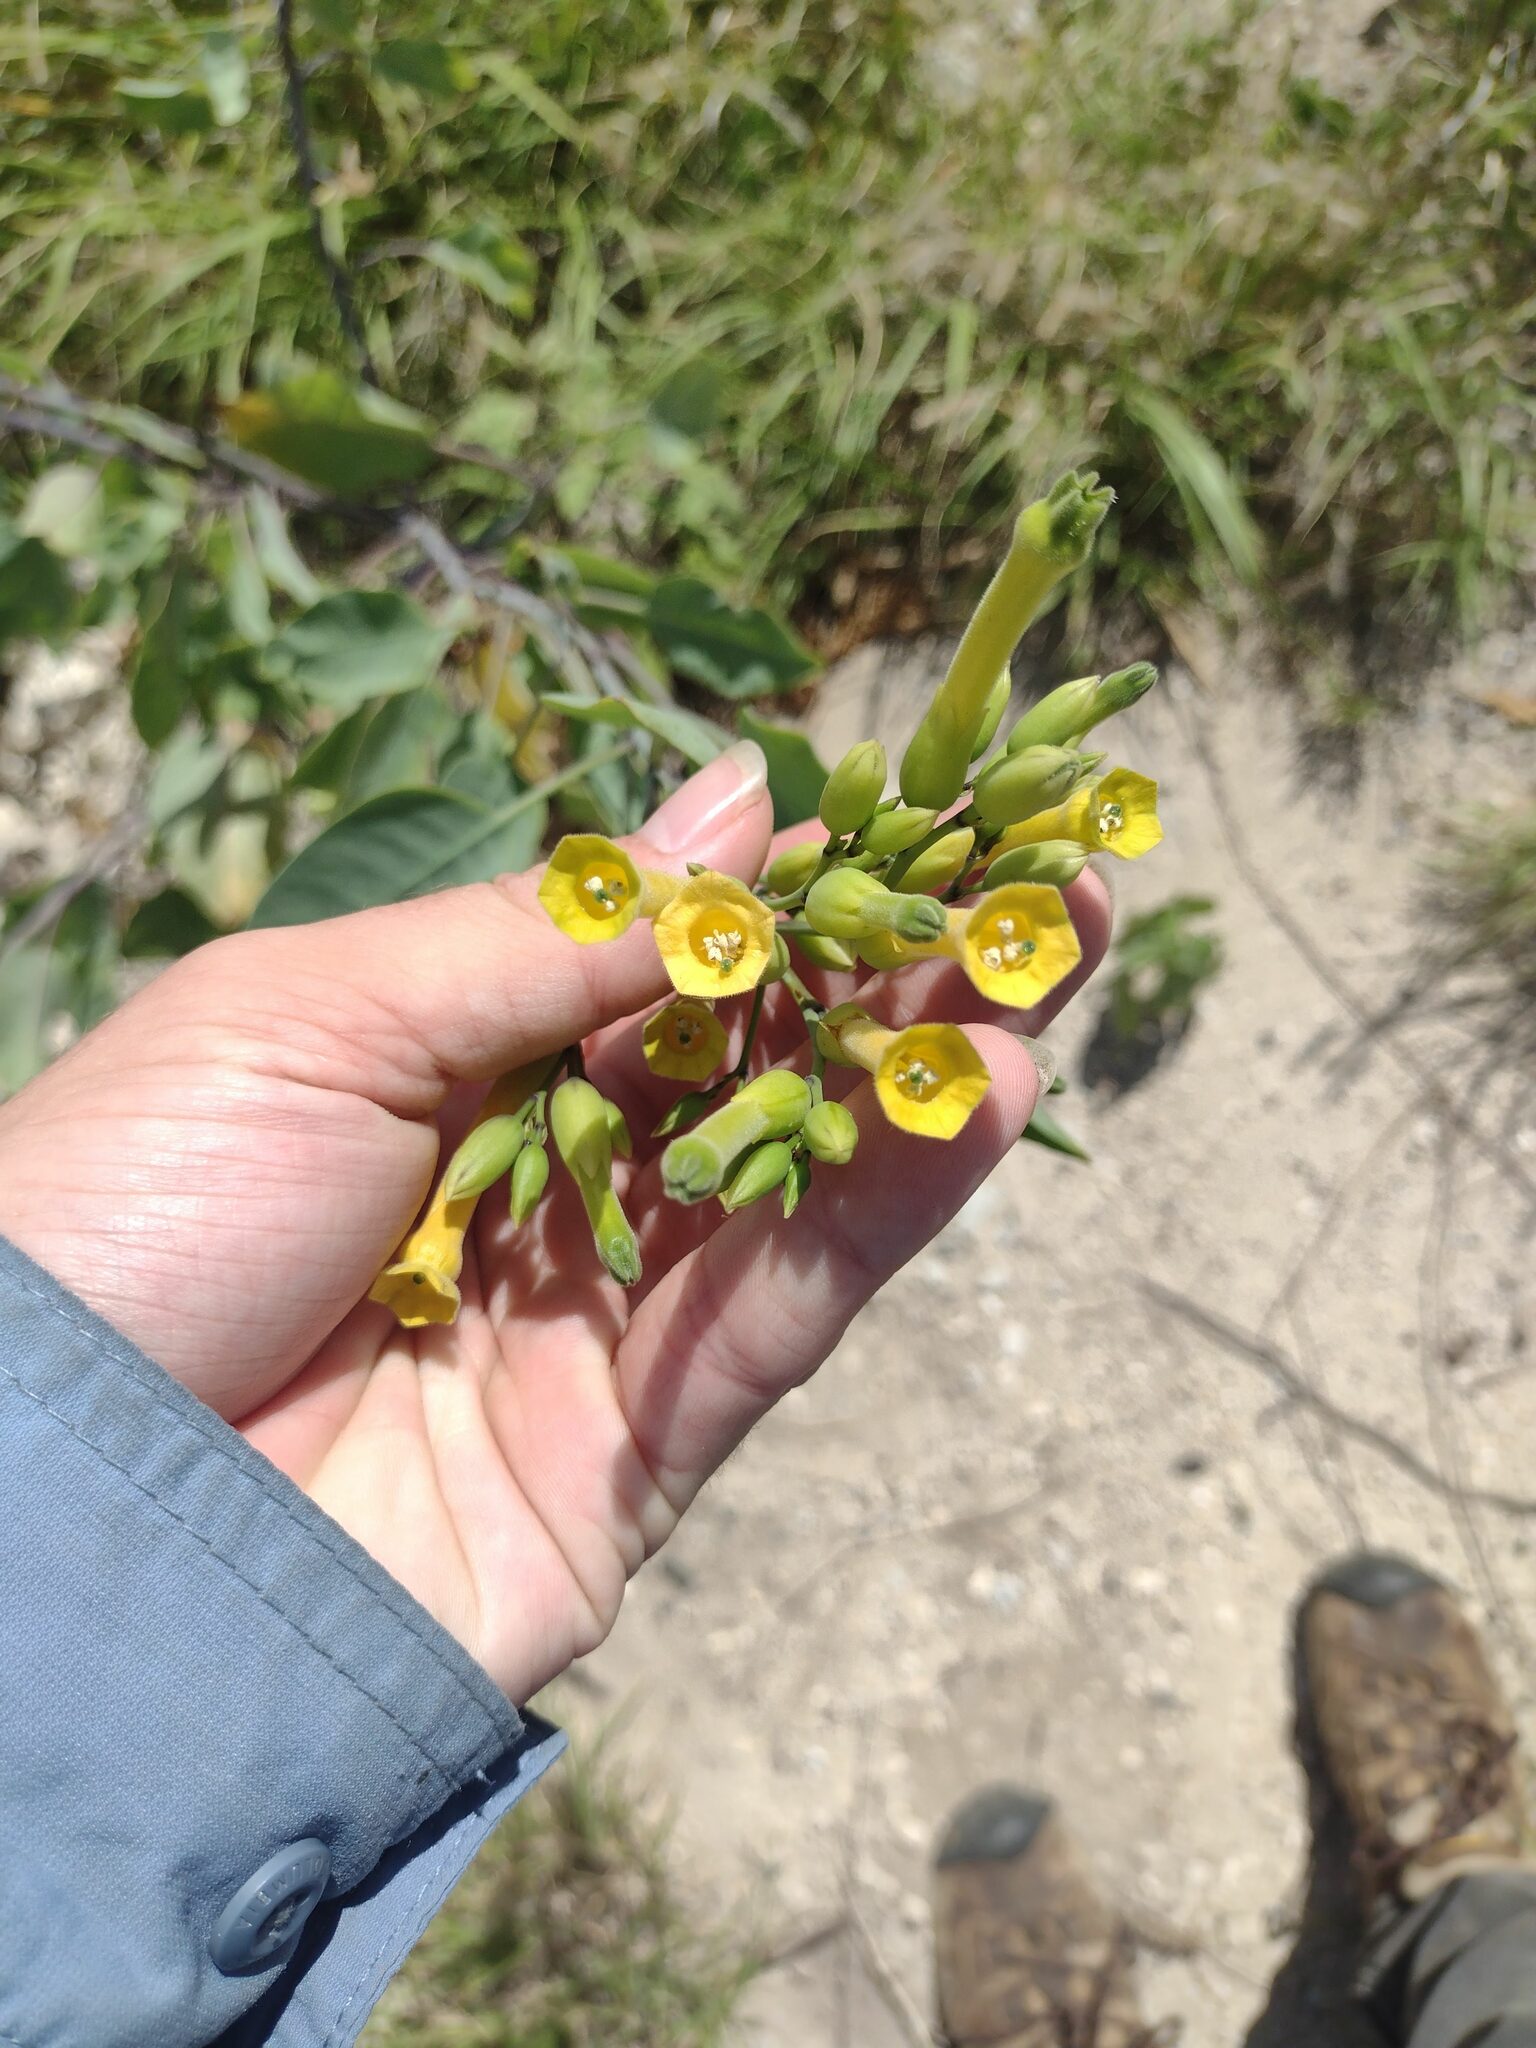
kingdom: Plantae
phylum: Tracheophyta
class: Magnoliopsida
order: Solanales
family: Solanaceae
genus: Nicotiana
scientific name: Nicotiana glauca
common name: Tree tobacco
